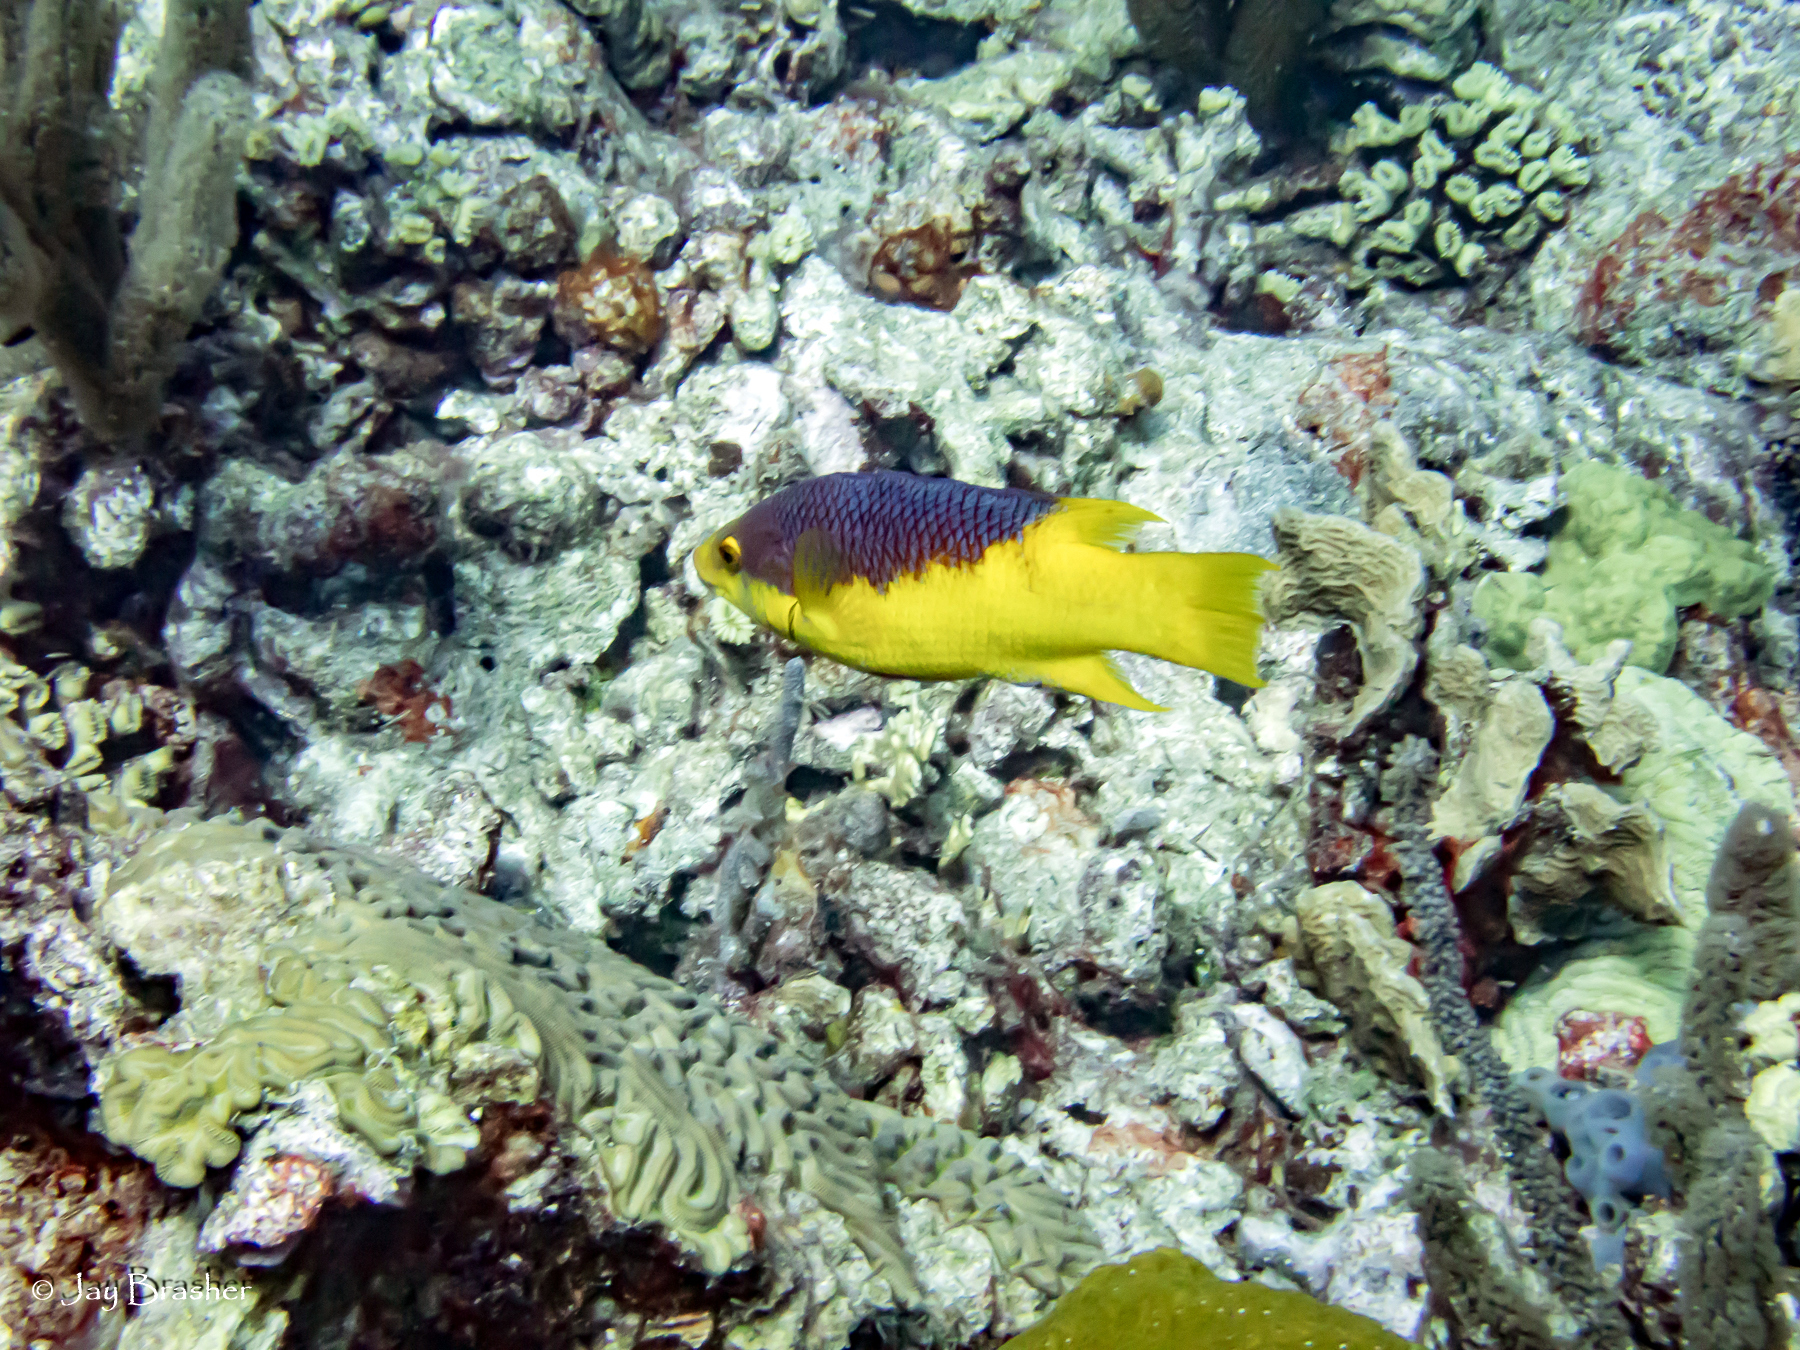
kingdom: Animalia
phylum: Cnidaria
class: Anthozoa
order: Scleractinia
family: Meandrinidae
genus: Eusmilia
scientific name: Eusmilia fastigiata
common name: Smooth flower coral
